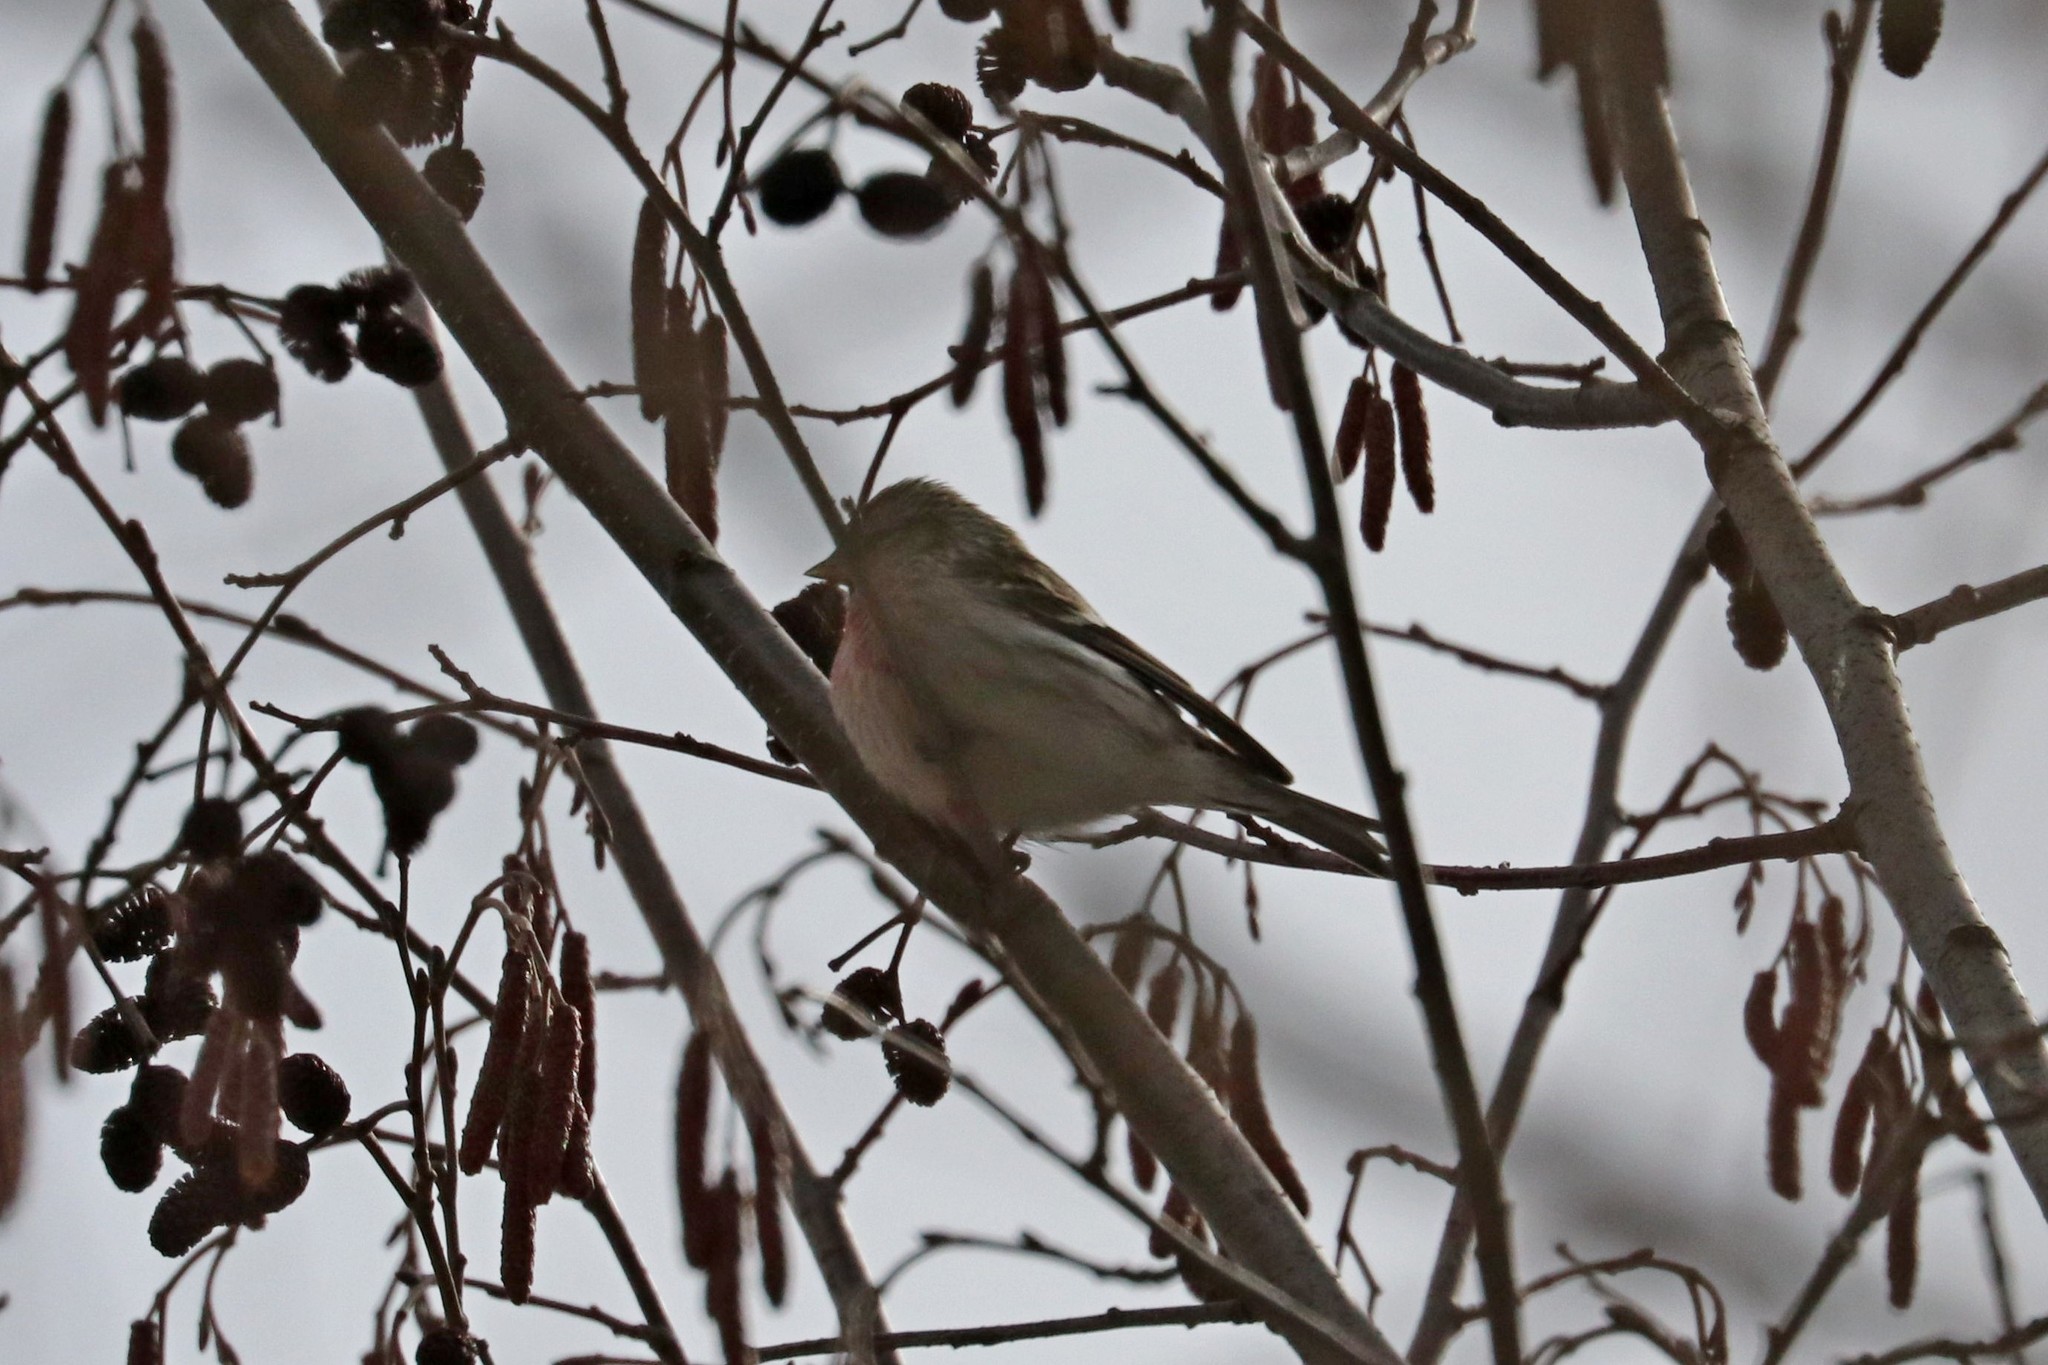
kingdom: Animalia
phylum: Chordata
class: Aves
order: Passeriformes
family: Fringillidae
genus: Acanthis
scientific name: Acanthis flammea
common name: Common redpoll
